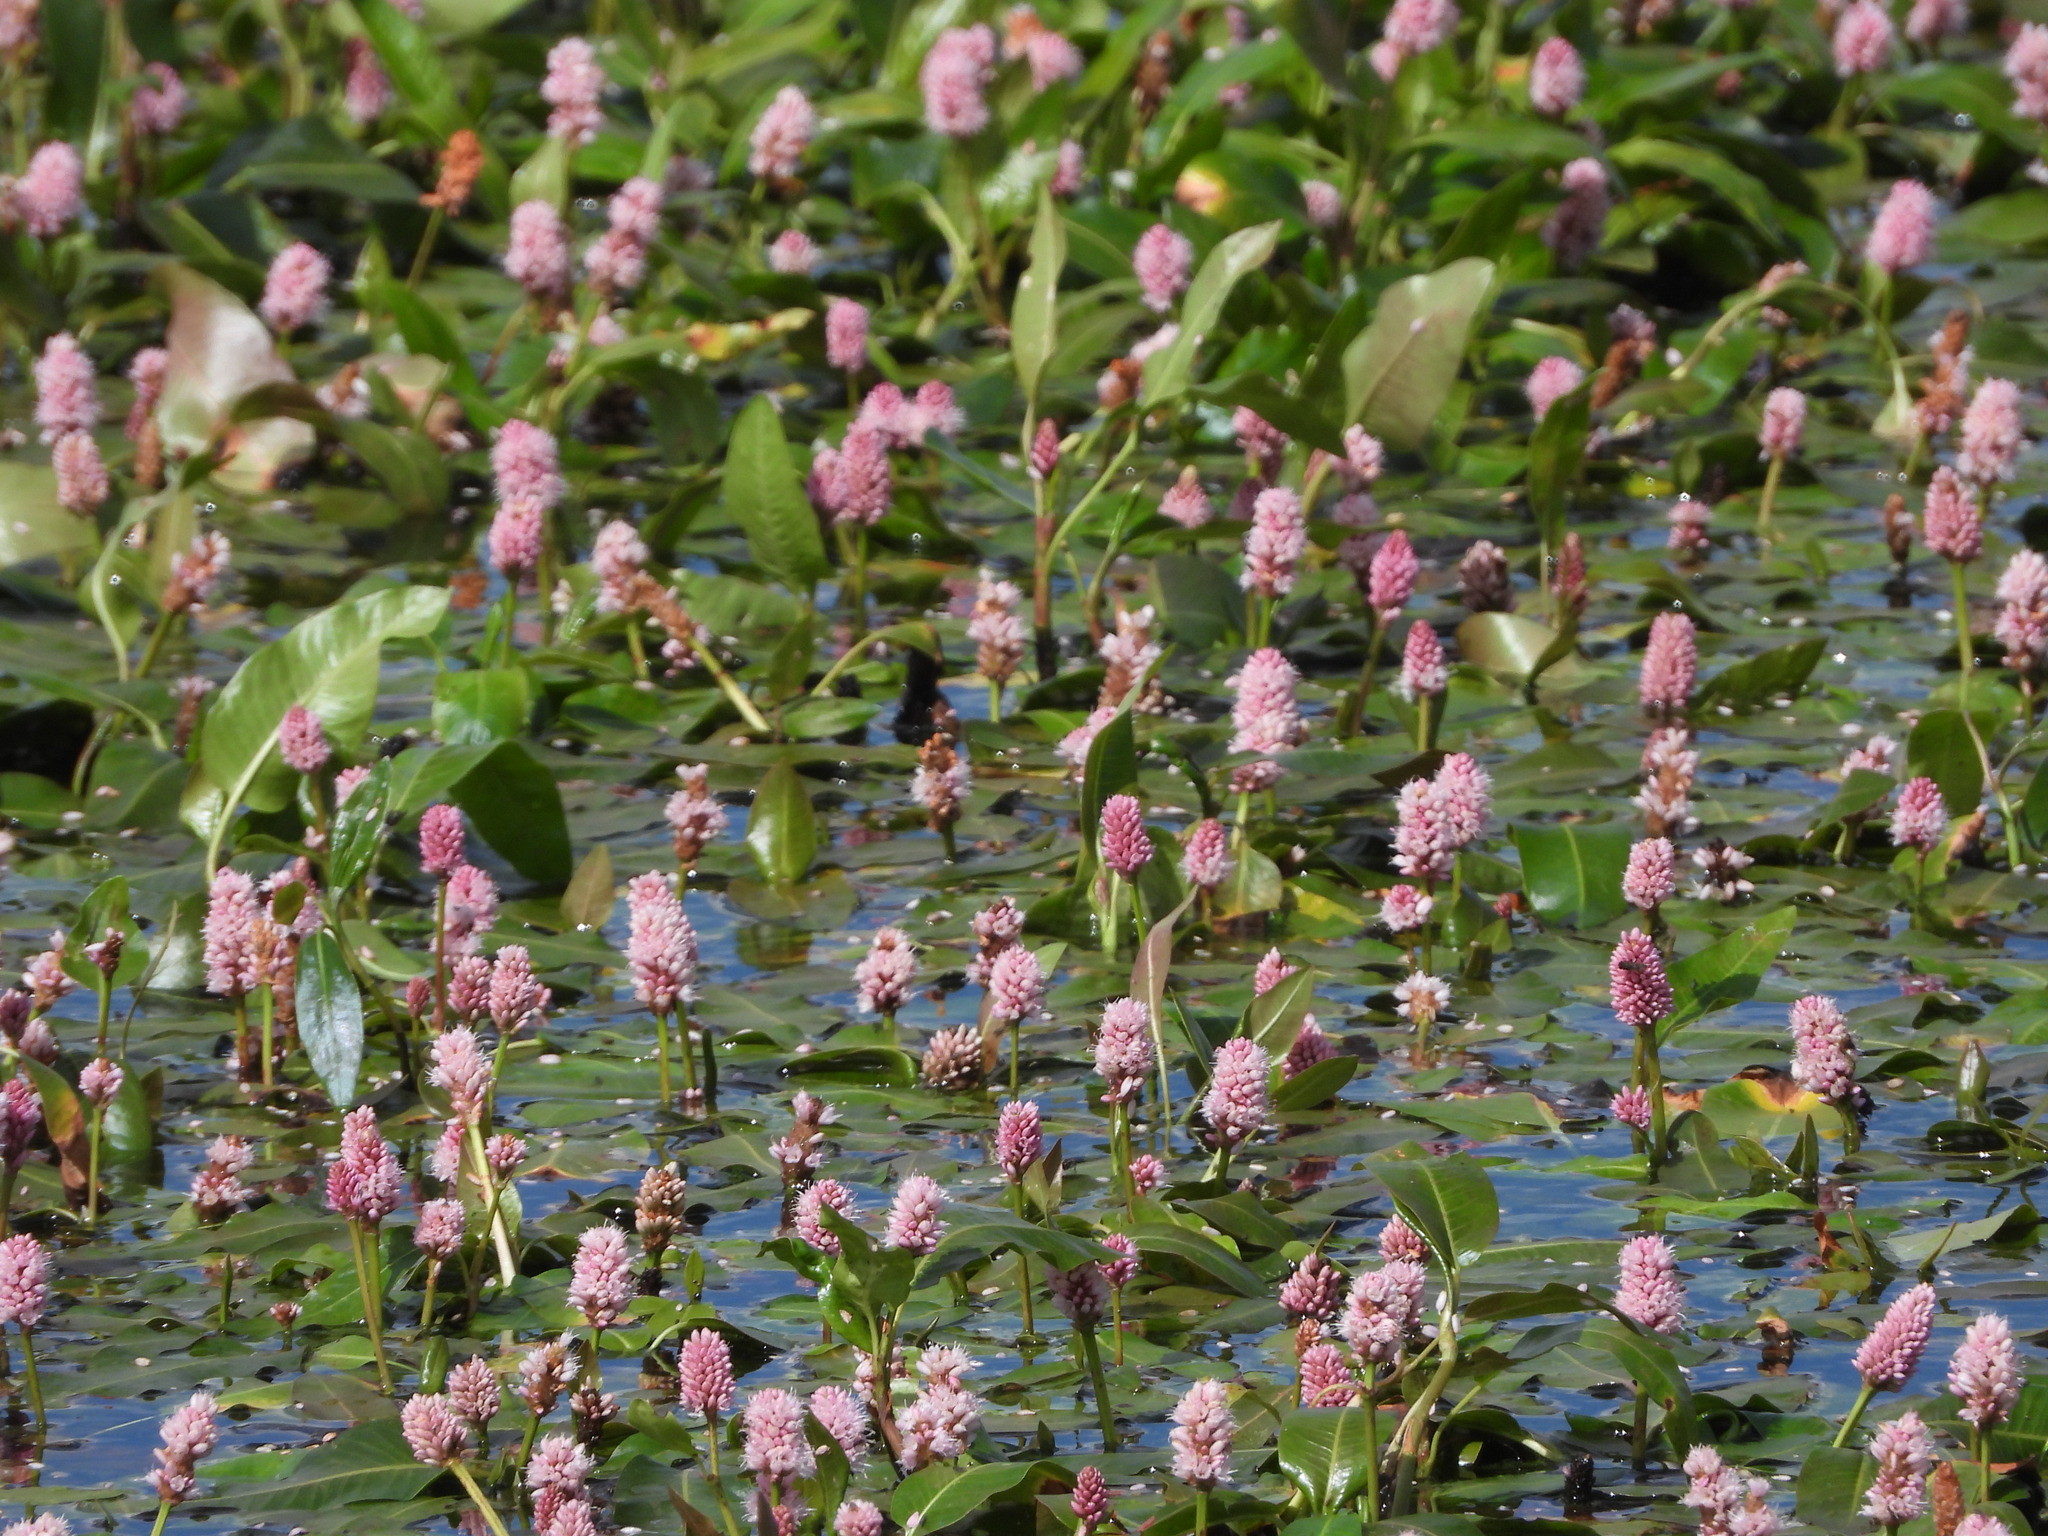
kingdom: Plantae
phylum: Tracheophyta
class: Magnoliopsida
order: Caryophyllales
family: Polygonaceae
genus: Persicaria
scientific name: Persicaria amphibia
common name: Amphibious bistort
